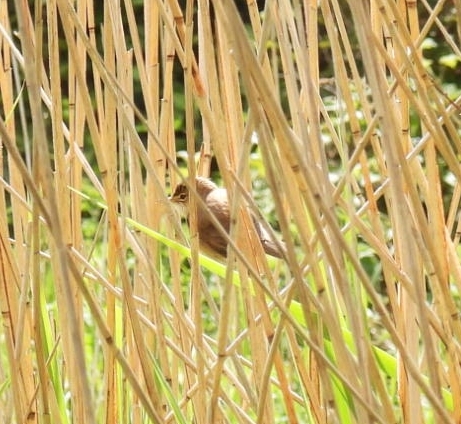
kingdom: Animalia
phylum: Chordata
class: Aves
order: Passeriformes
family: Acrocephalidae
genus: Acrocephalus
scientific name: Acrocephalus scirpaceus
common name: Eurasian reed warbler
